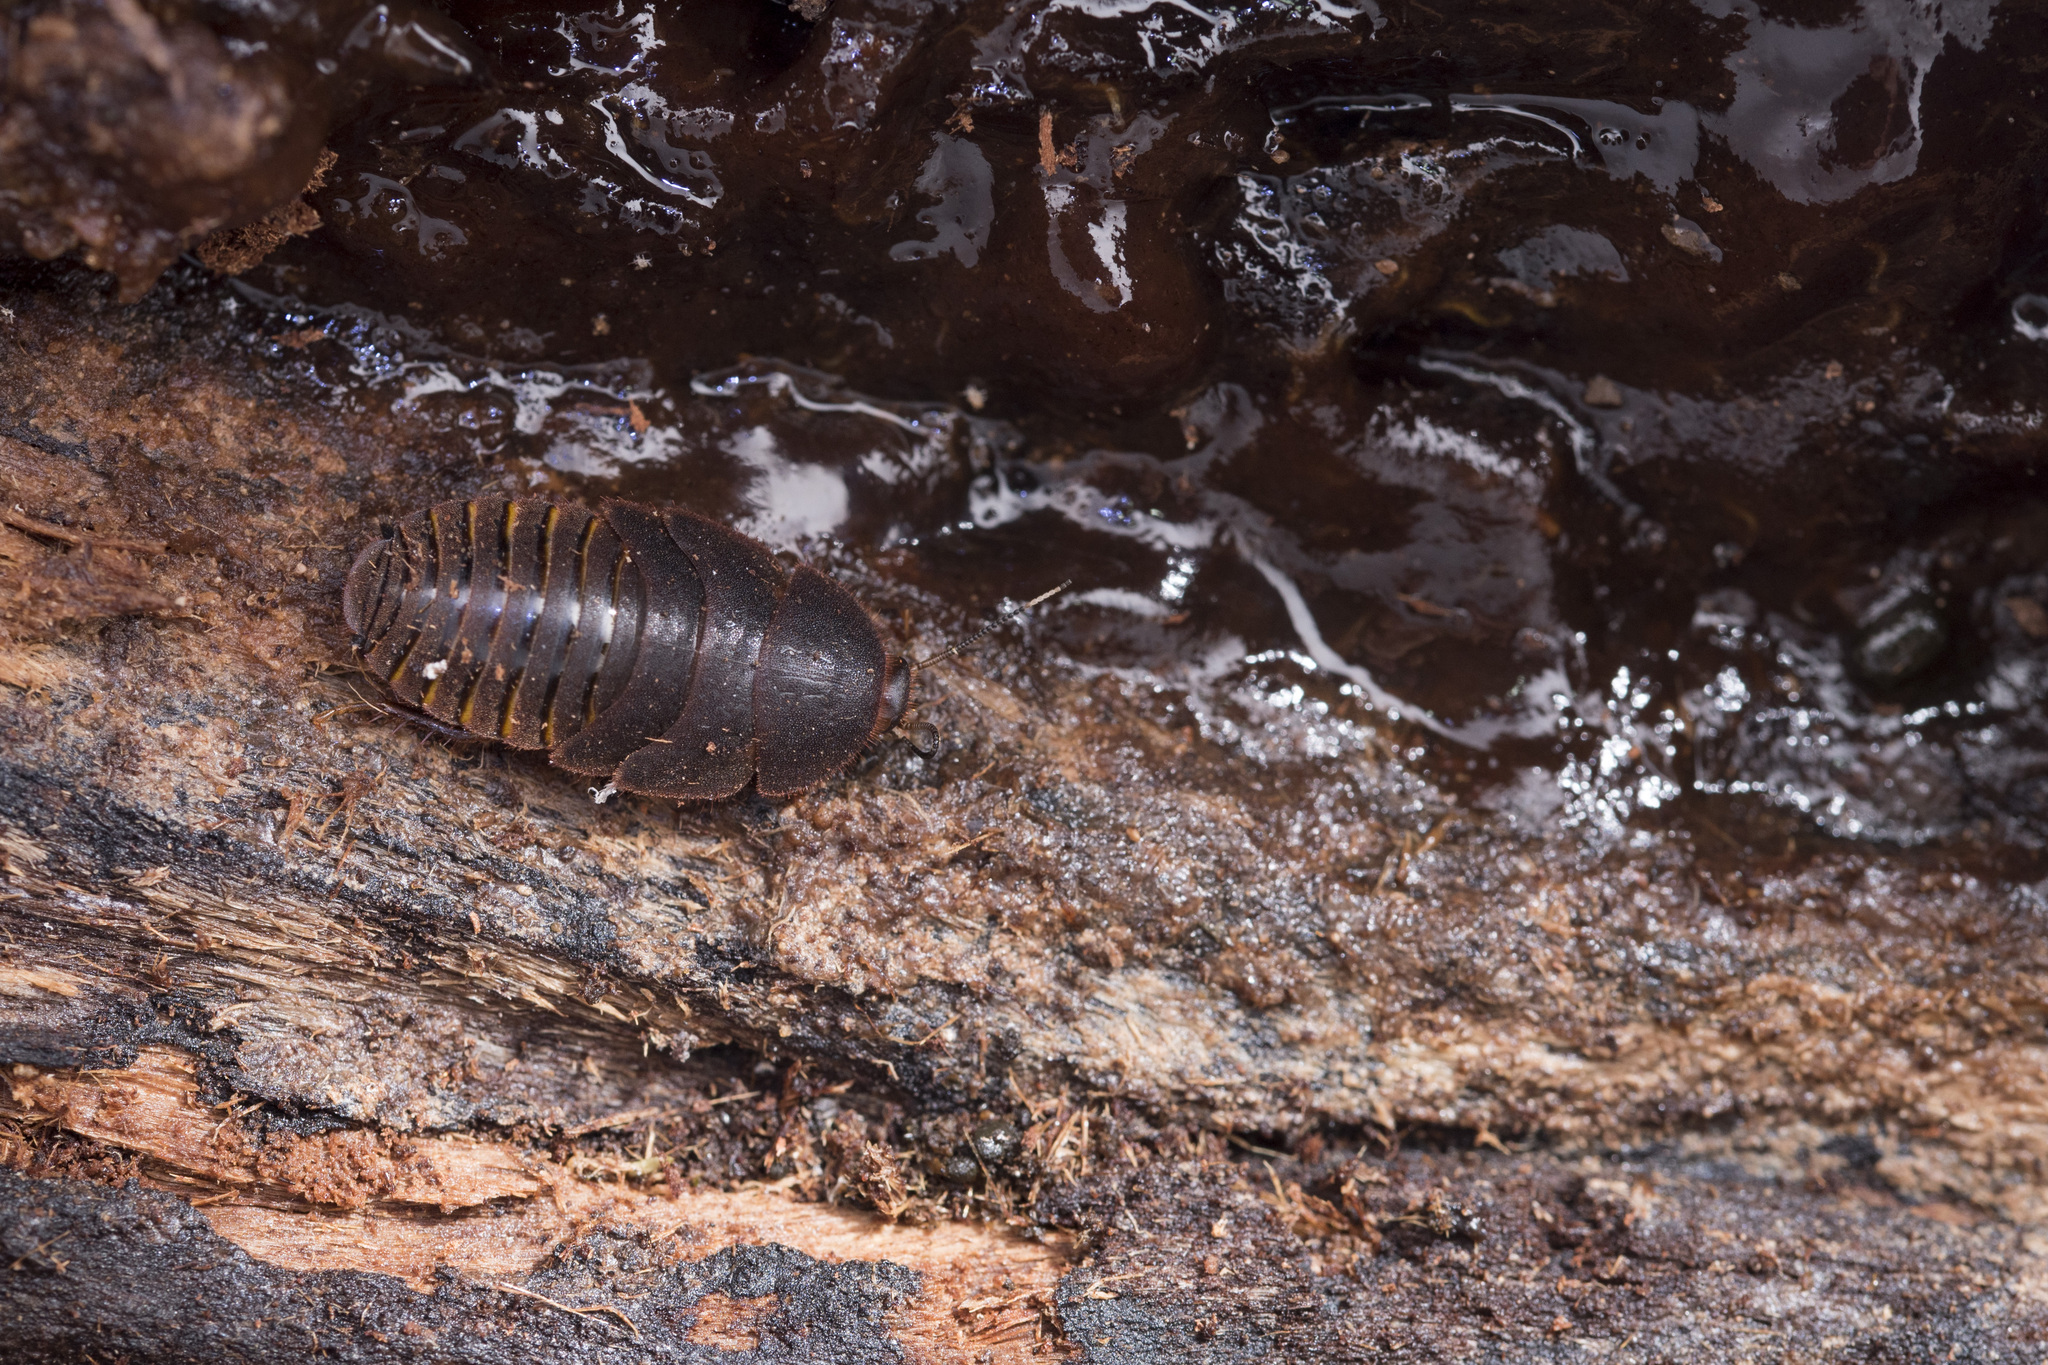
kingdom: Animalia
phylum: Arthropoda
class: Insecta
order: Blattodea
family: Corydiidae
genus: Eucorydia
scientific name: Eucorydia aenea
